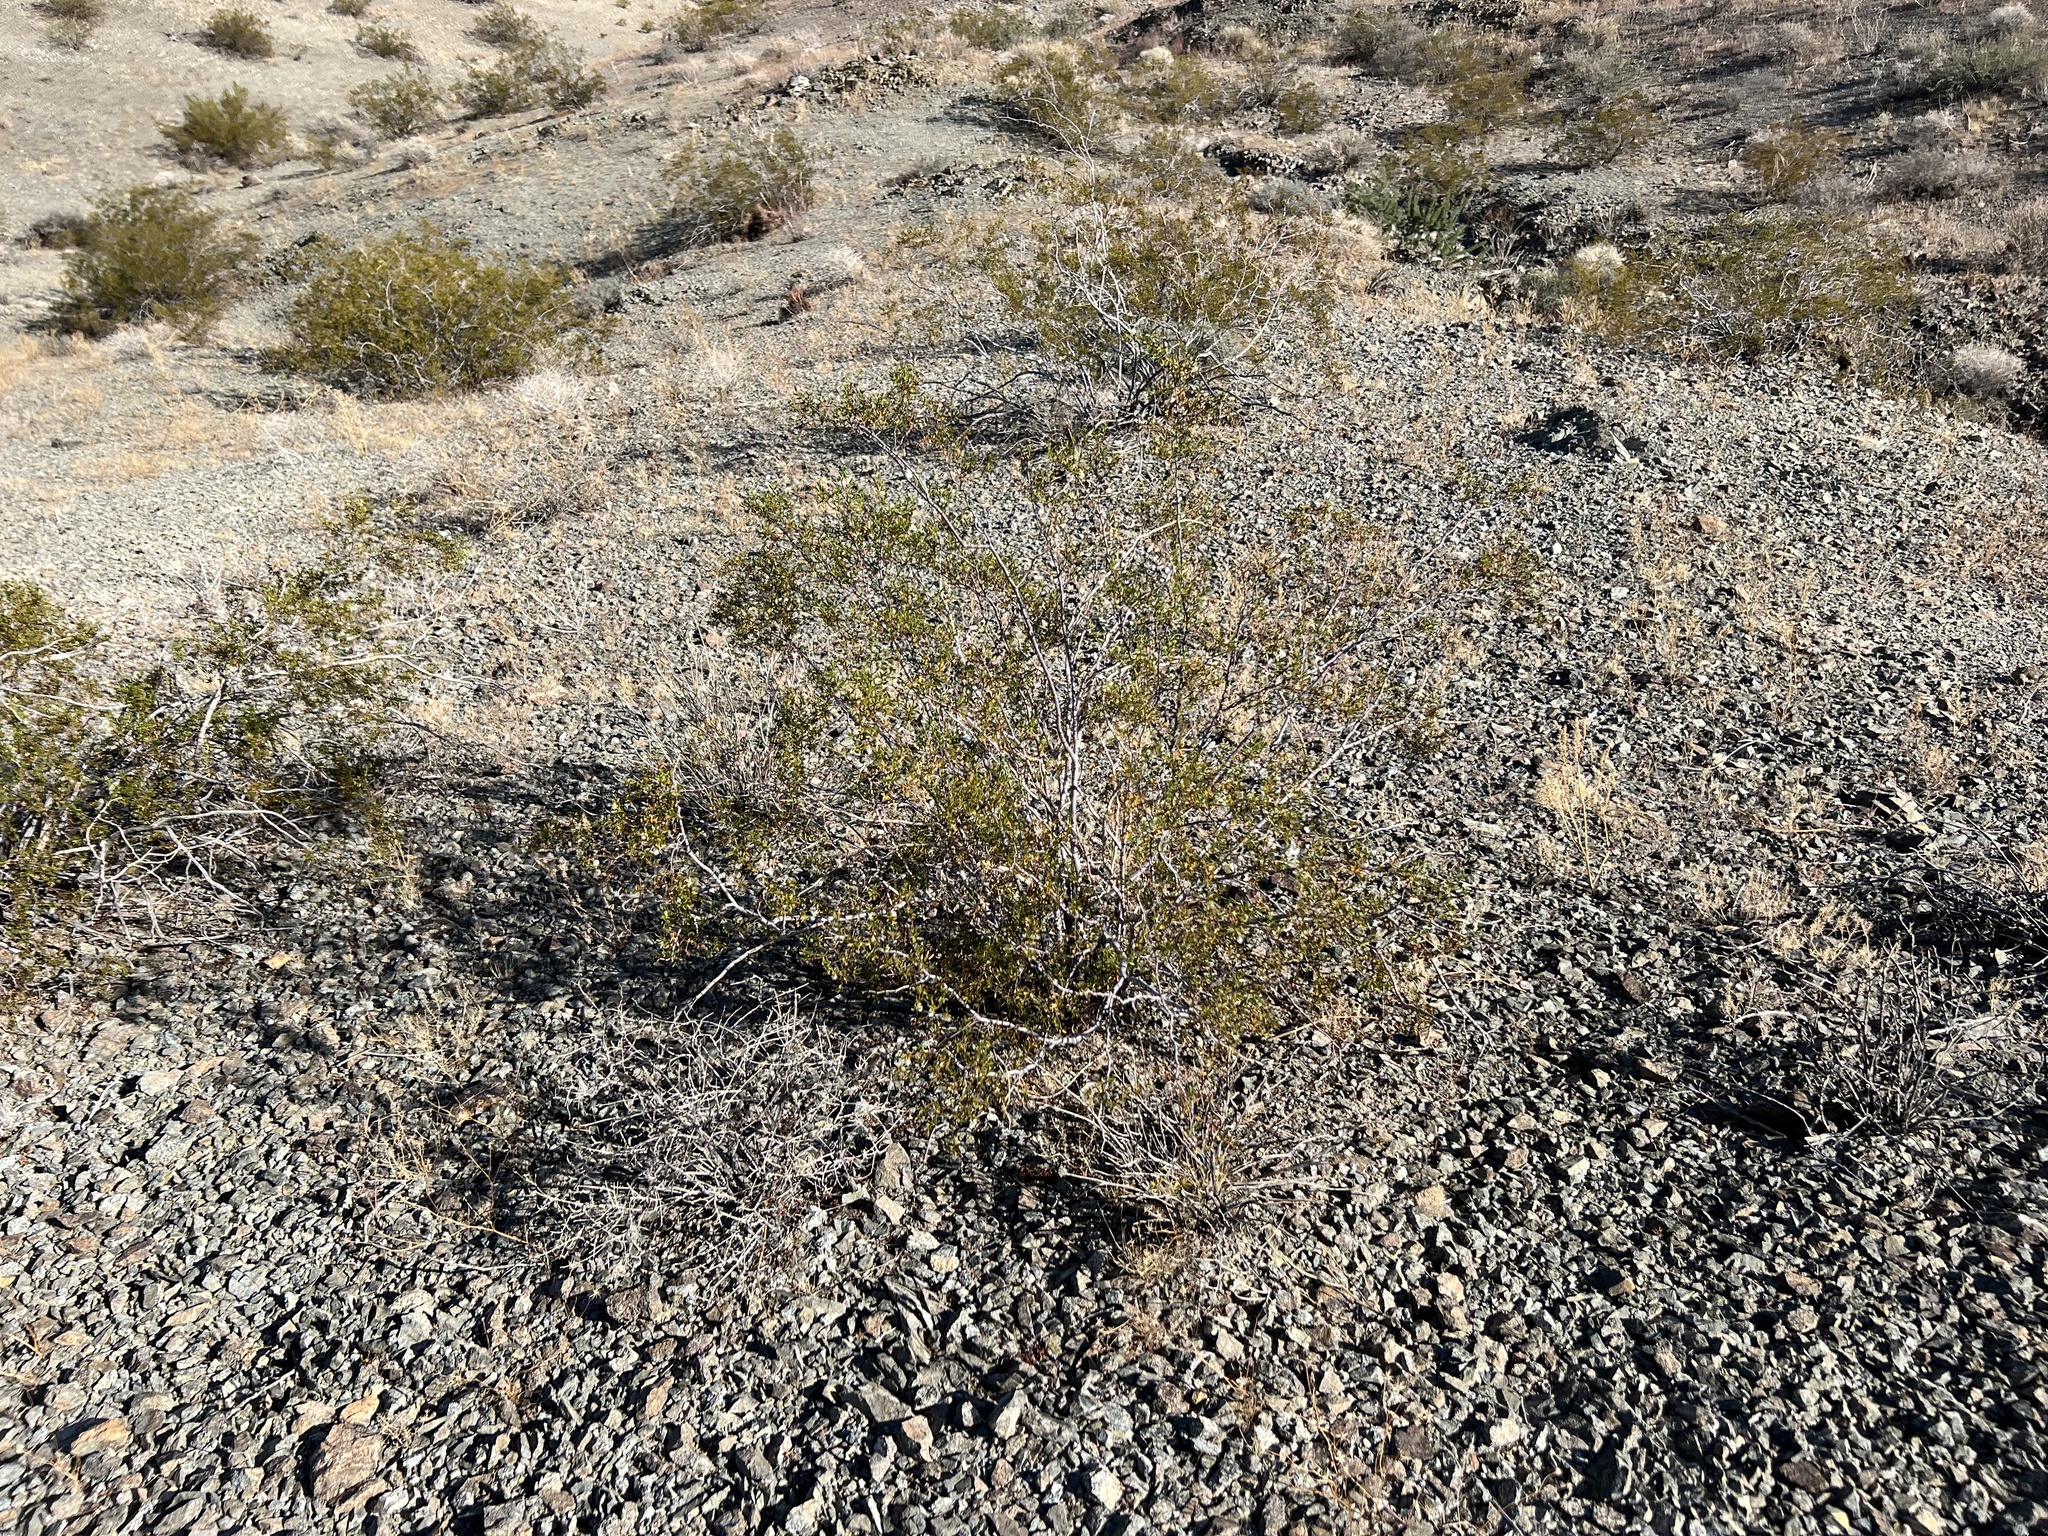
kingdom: Plantae
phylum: Tracheophyta
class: Magnoliopsida
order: Zygophyllales
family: Zygophyllaceae
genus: Larrea
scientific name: Larrea tridentata
